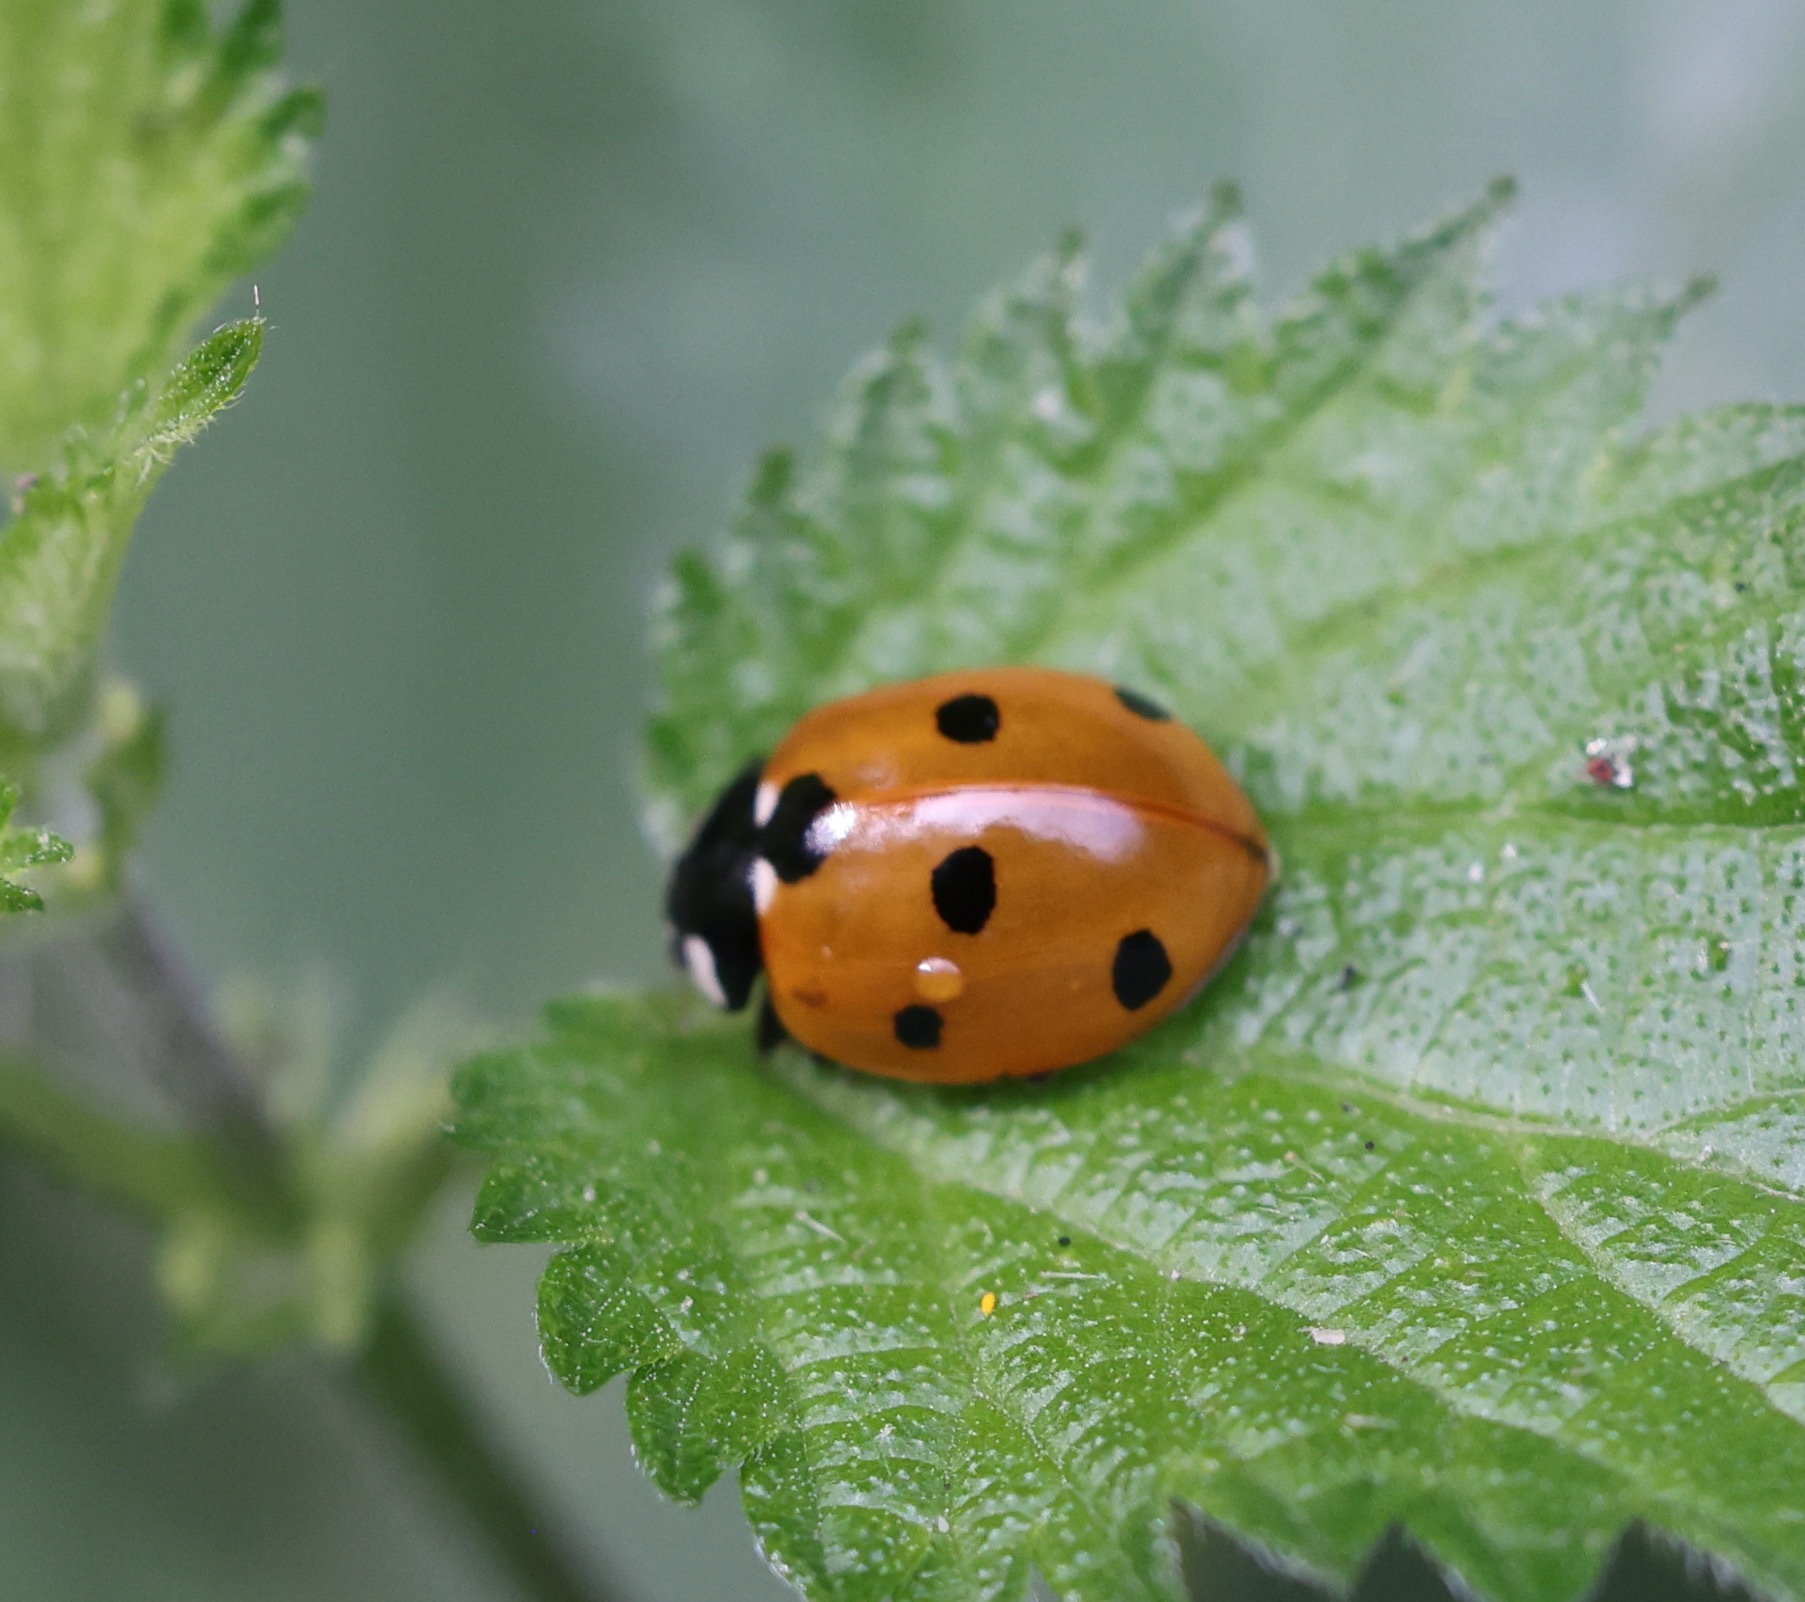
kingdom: Animalia
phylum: Arthropoda
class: Insecta
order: Coleoptera
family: Coccinellidae
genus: Coccinella
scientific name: Coccinella septempunctata
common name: Sevenspotted lady beetle
